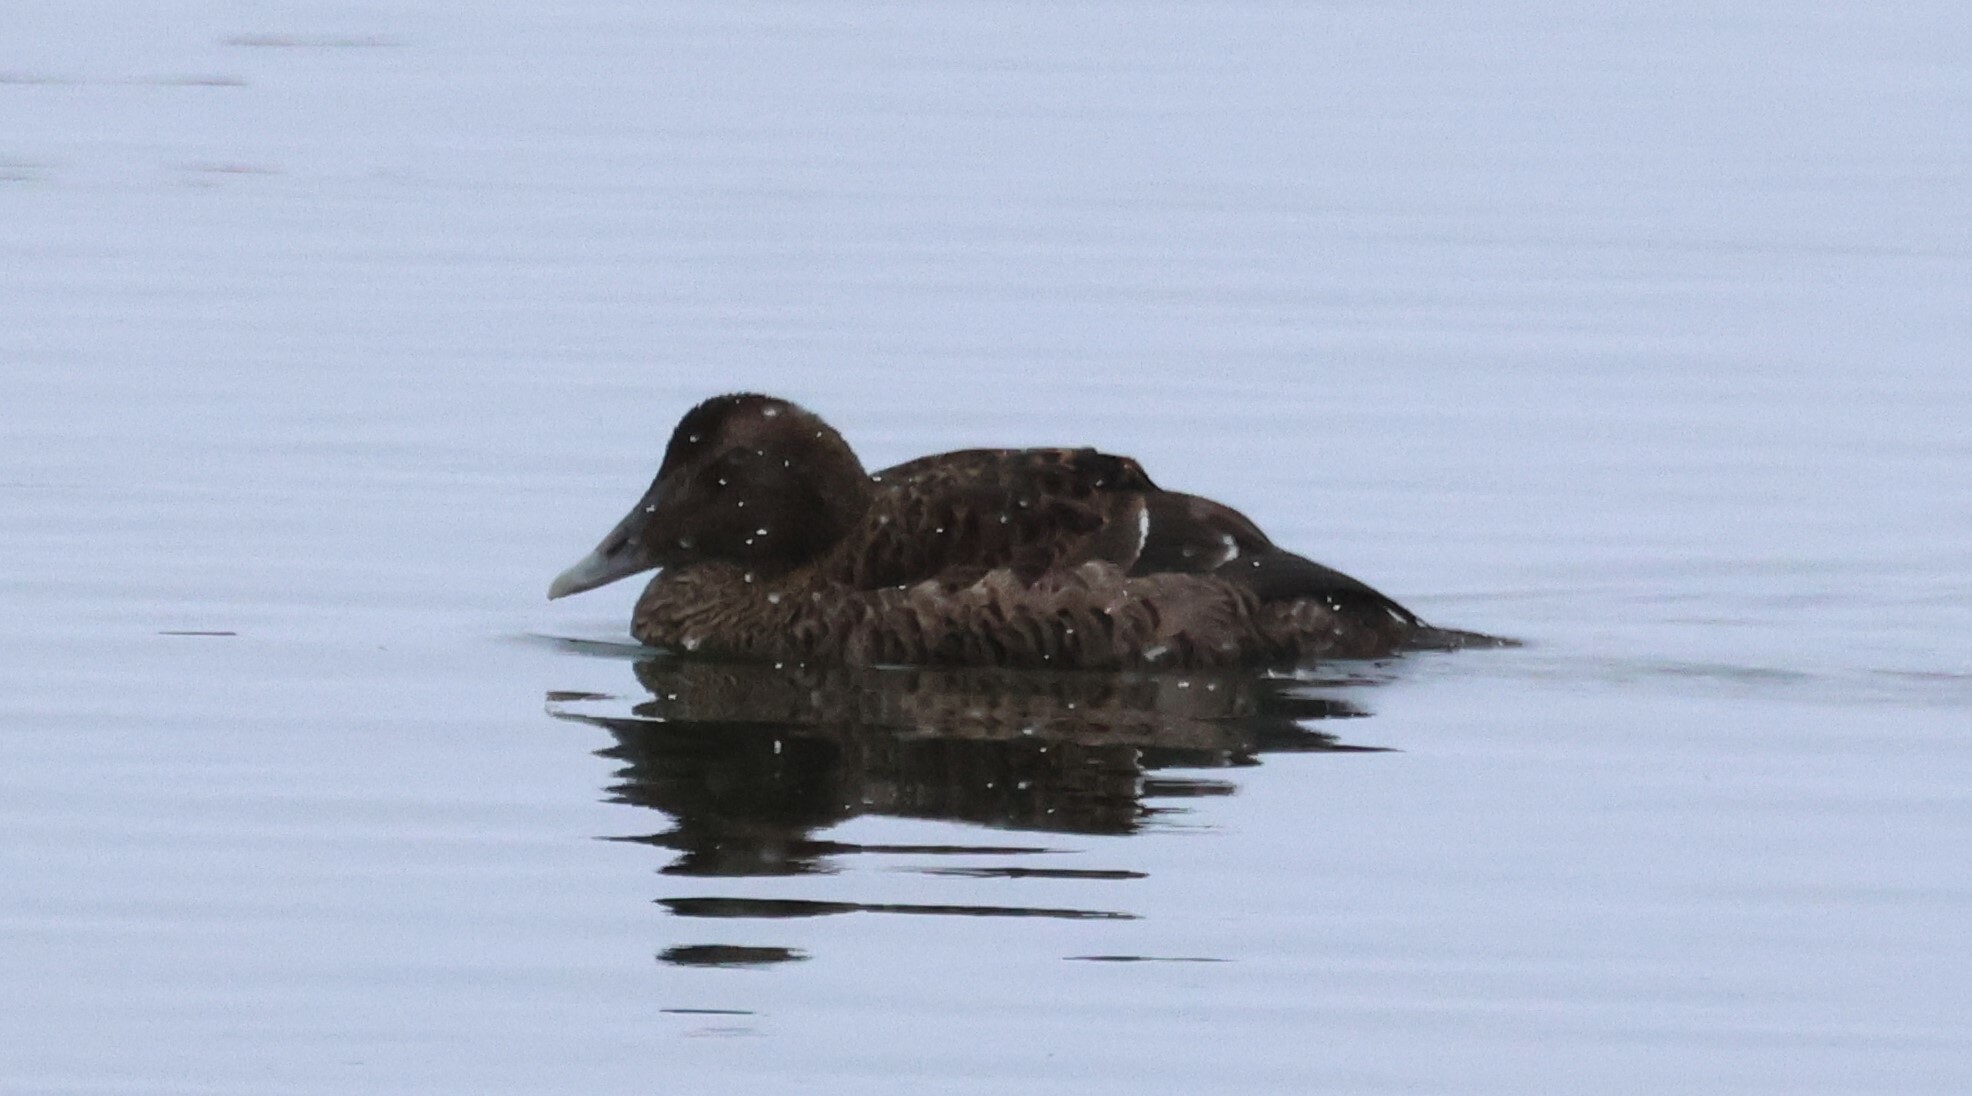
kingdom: Animalia
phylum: Chordata
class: Aves
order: Anseriformes
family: Anatidae
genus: Somateria
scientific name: Somateria mollissima
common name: Common eider
